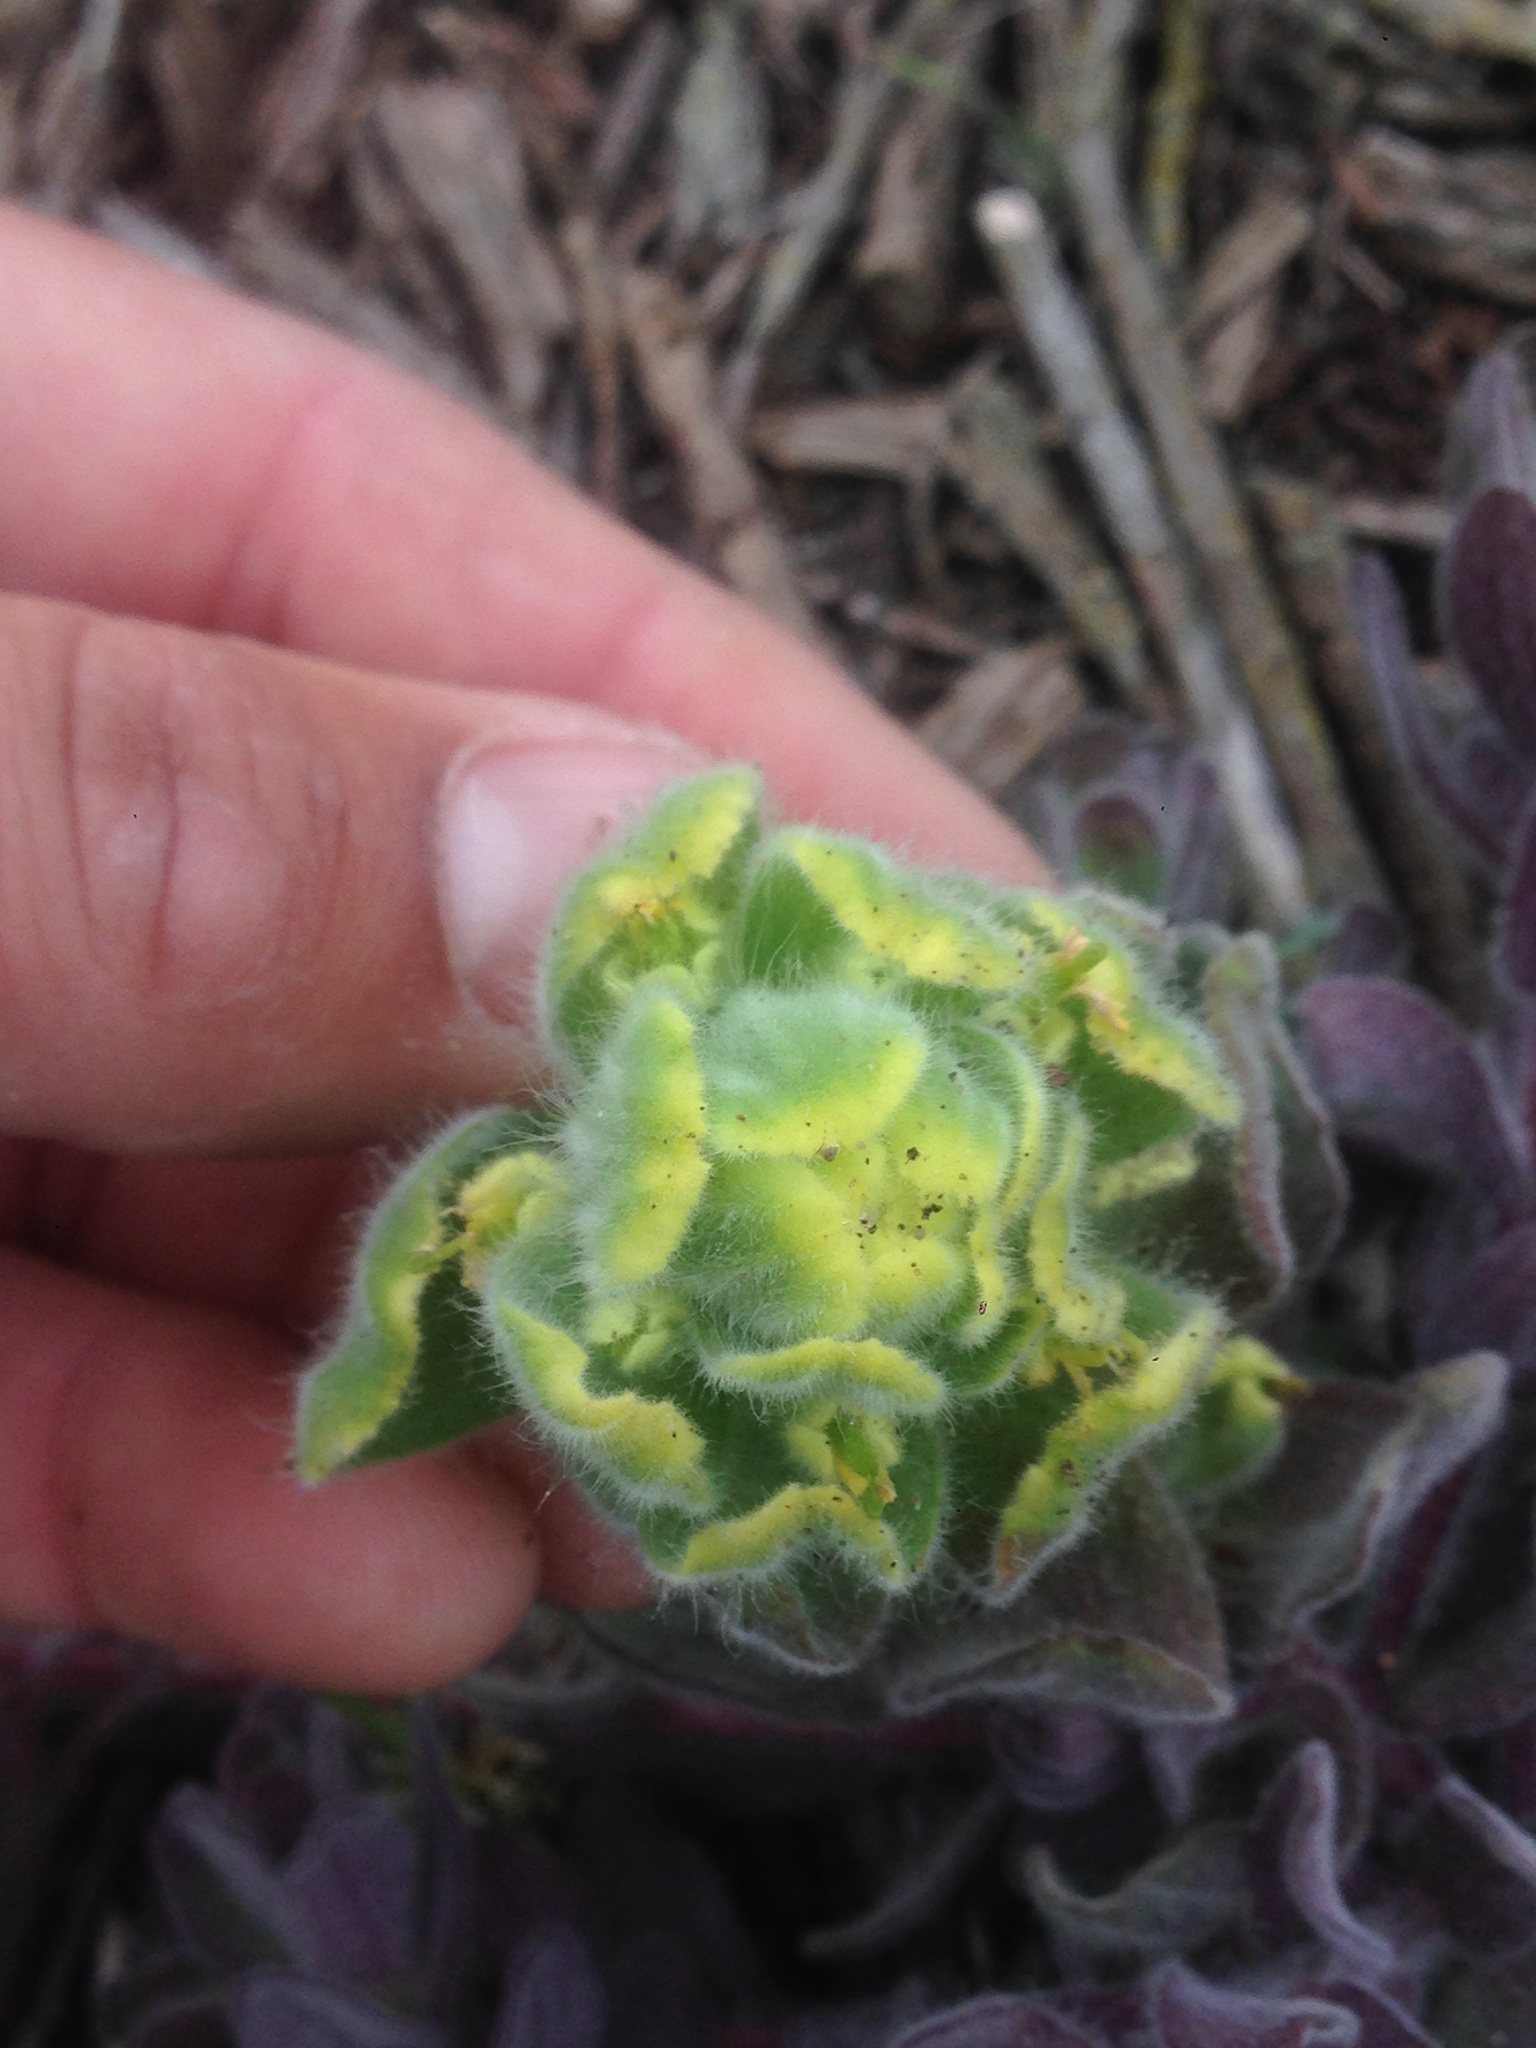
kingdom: Plantae
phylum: Tracheophyta
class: Magnoliopsida
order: Lamiales
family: Orobanchaceae
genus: Castilleja
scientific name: Castilleja mollis
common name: Soft-leaf paintbrush
